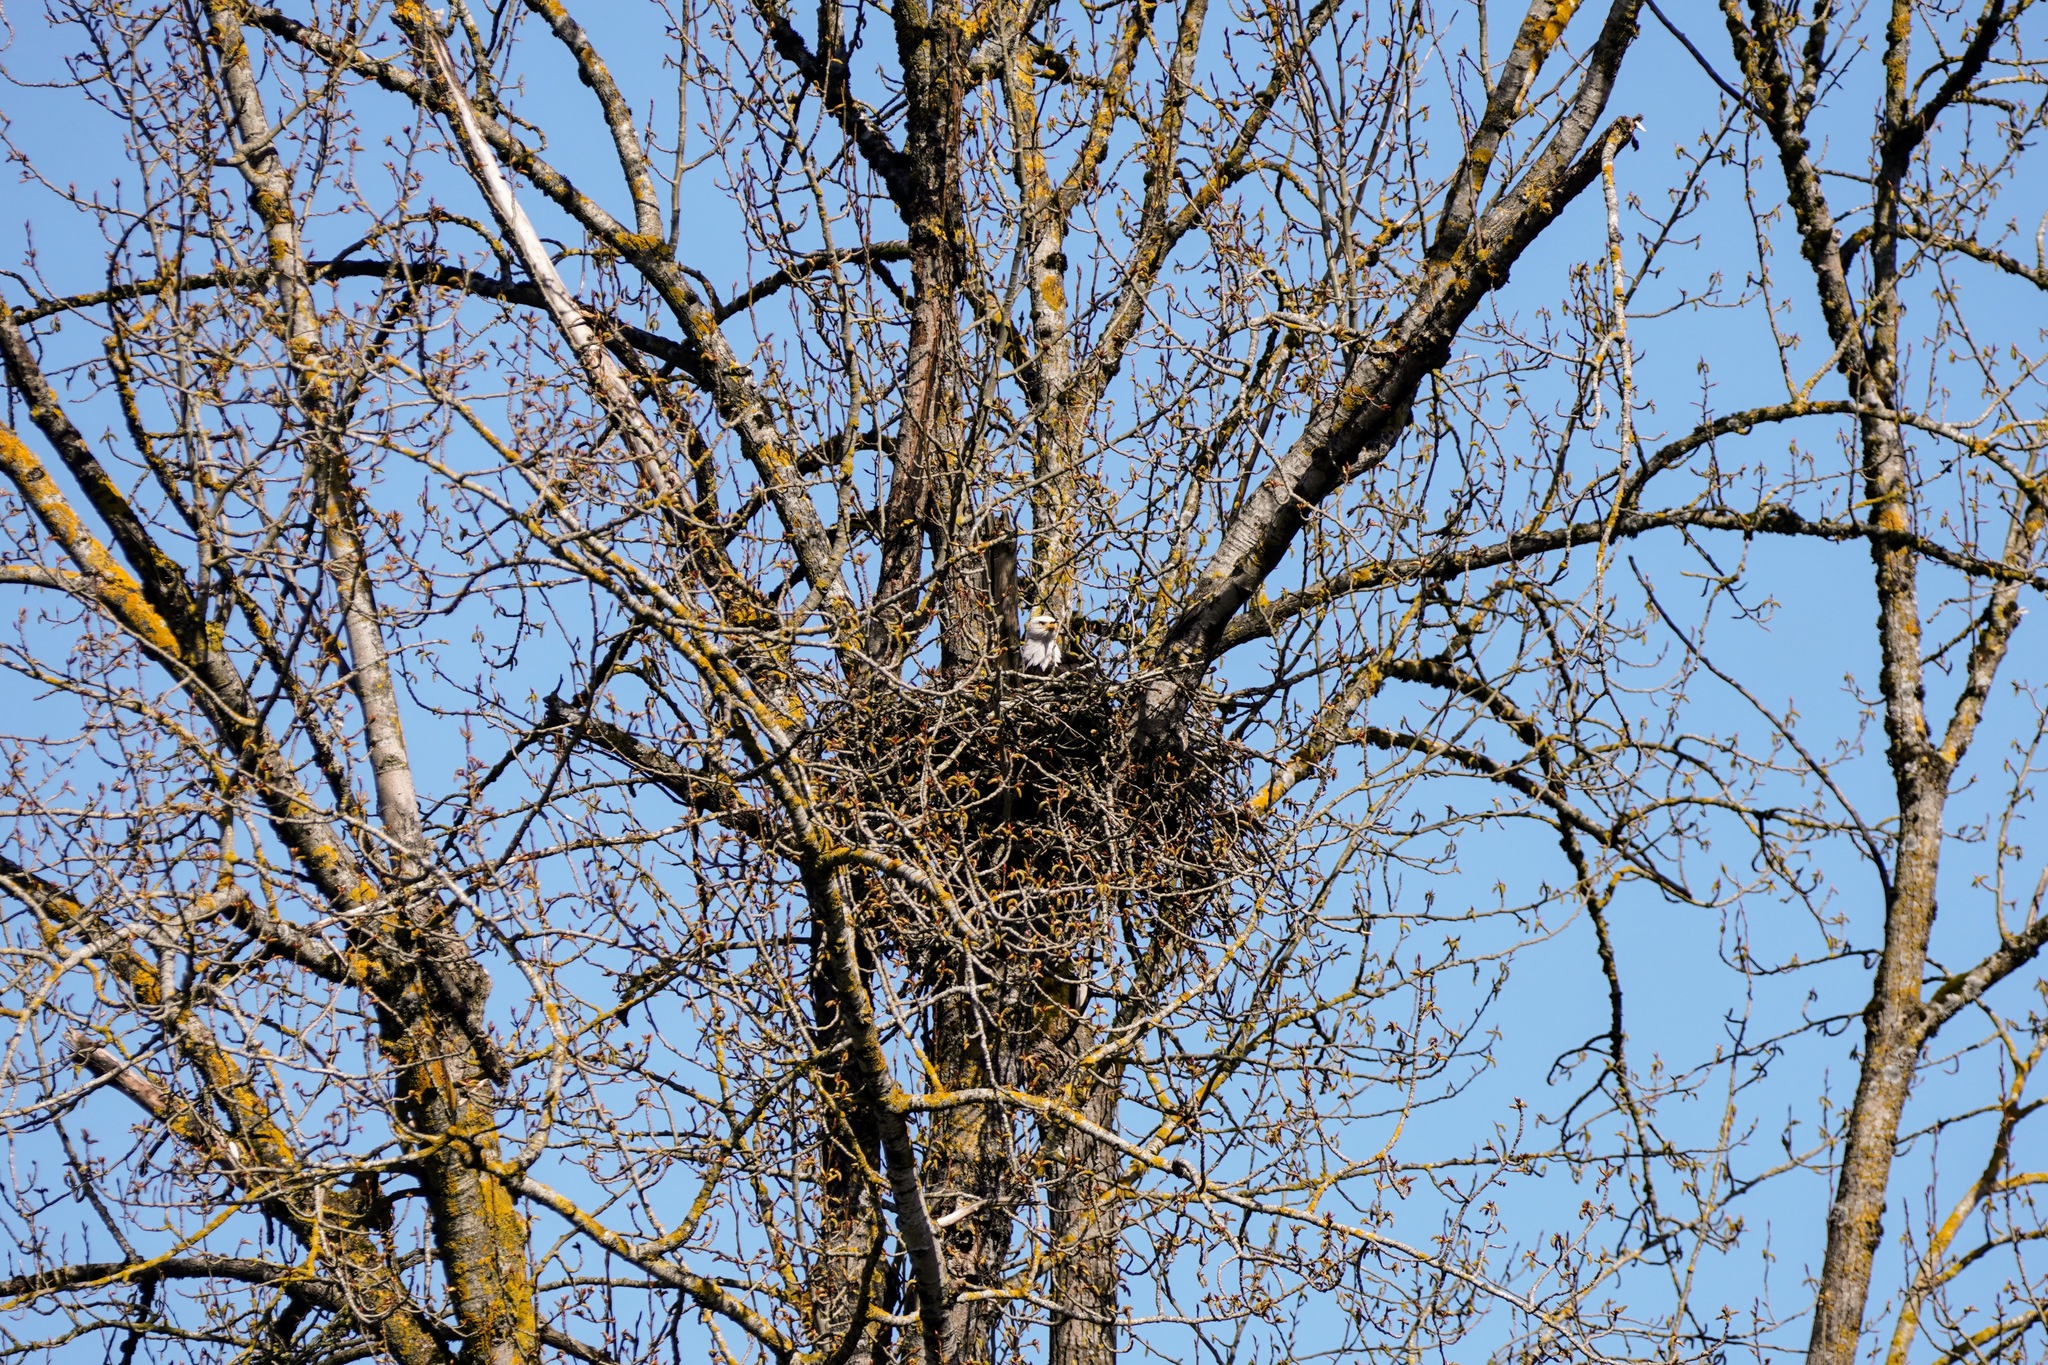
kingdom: Animalia
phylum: Chordata
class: Aves
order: Accipitriformes
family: Accipitridae
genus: Haliaeetus
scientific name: Haliaeetus leucocephalus
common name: Bald eagle
